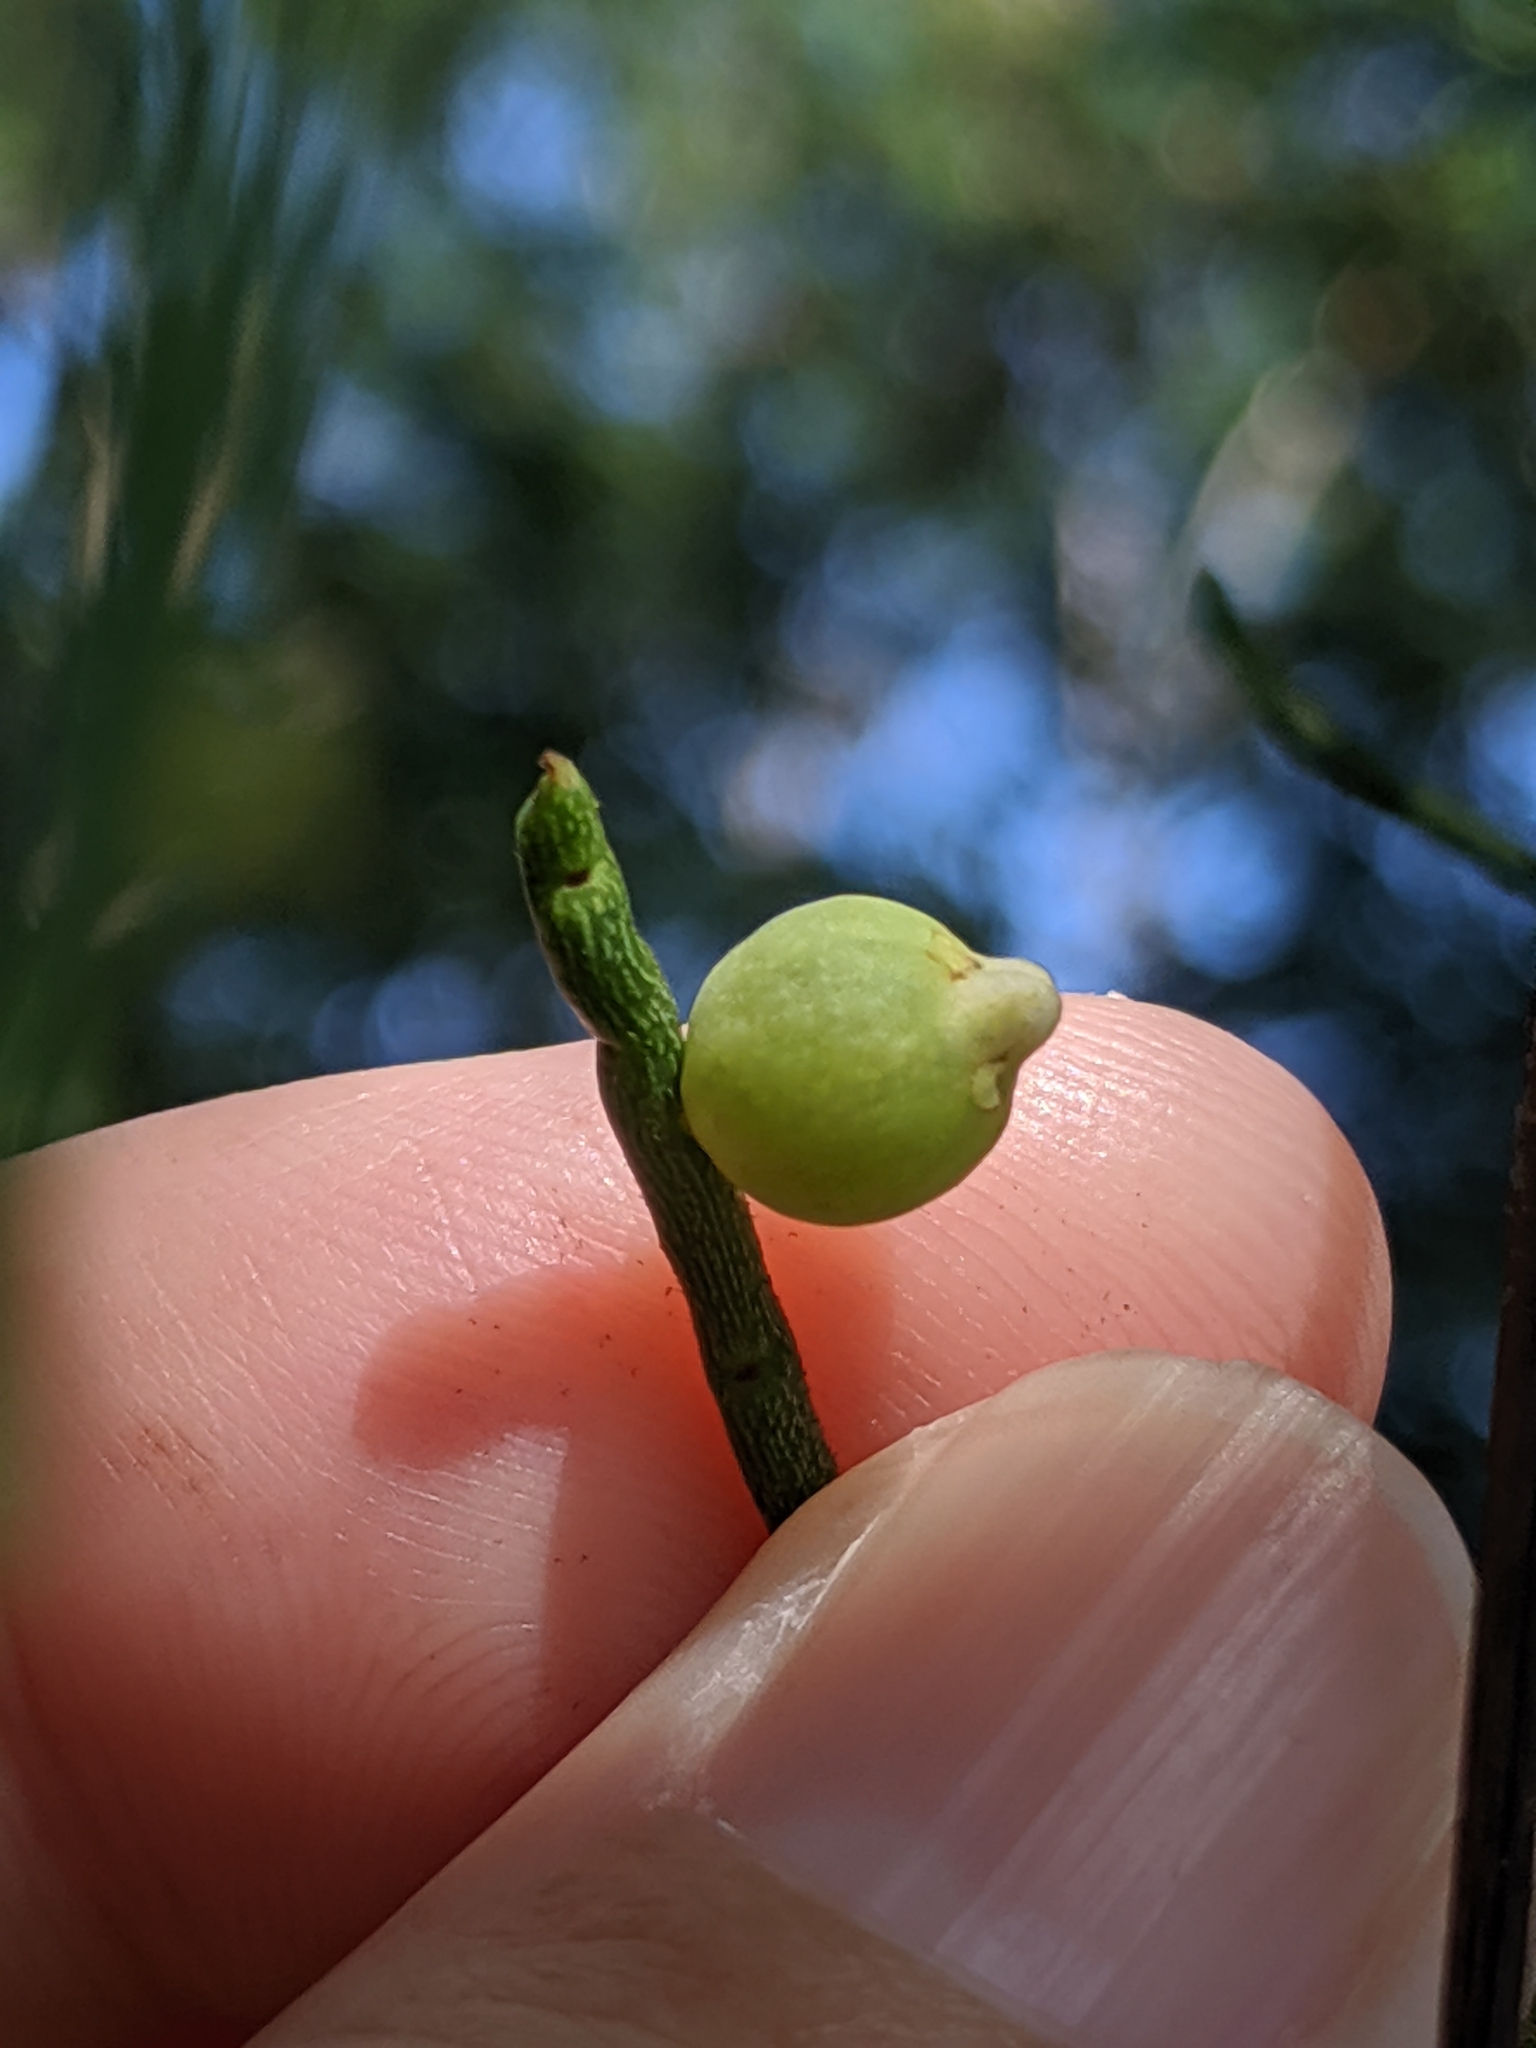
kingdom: Plantae
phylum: Tracheophyta
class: Magnoliopsida
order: Laurales
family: Lauraceae
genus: Cassytha
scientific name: Cassytha filiformis
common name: Dodder-laurel
